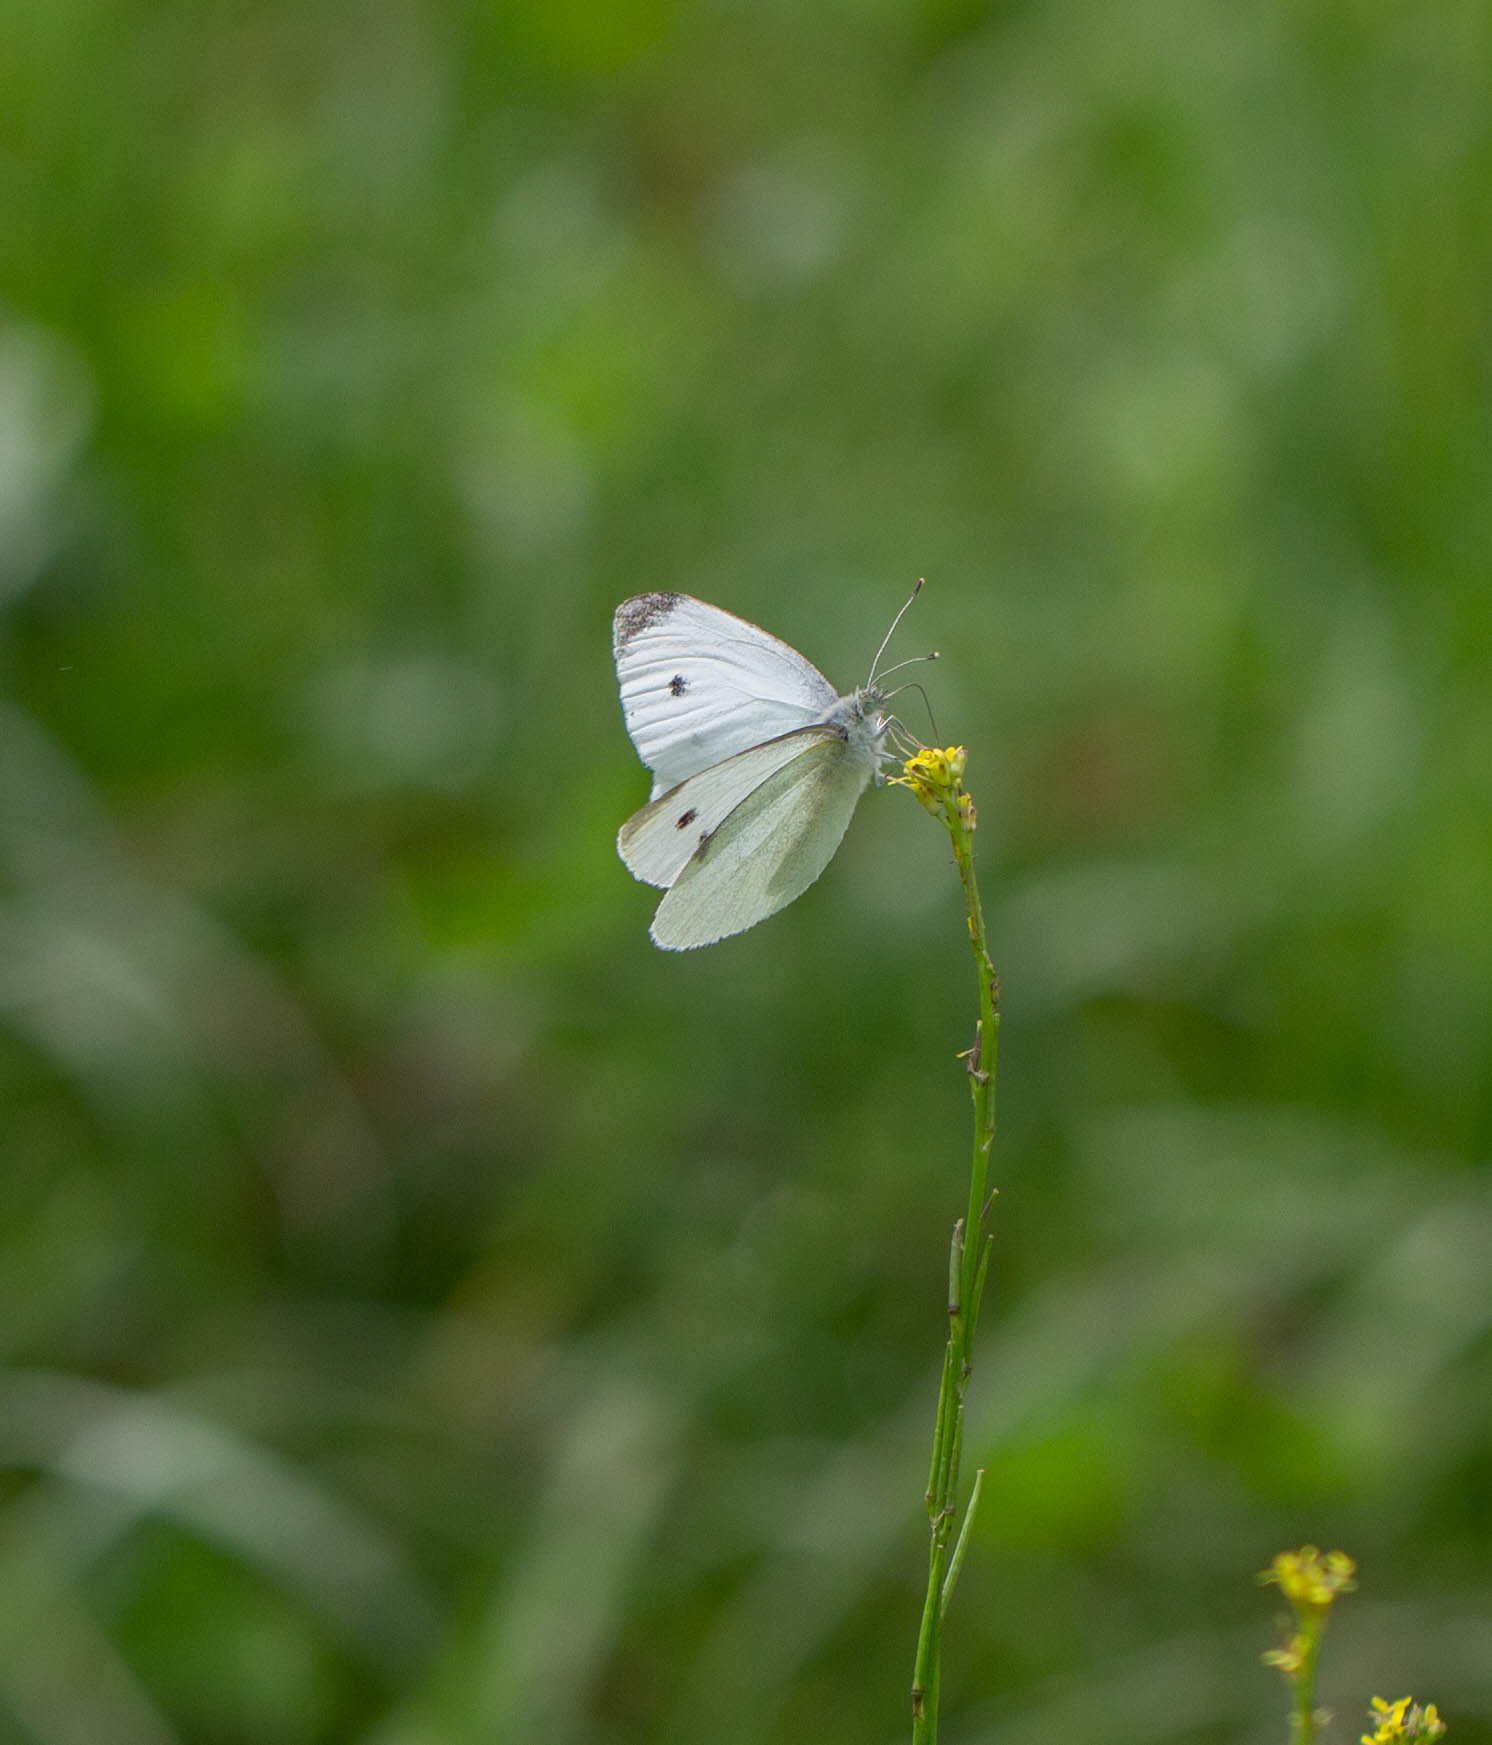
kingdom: Animalia
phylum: Arthropoda
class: Insecta
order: Lepidoptera
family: Pieridae
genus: Pieris
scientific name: Pieris rapae
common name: Small white
